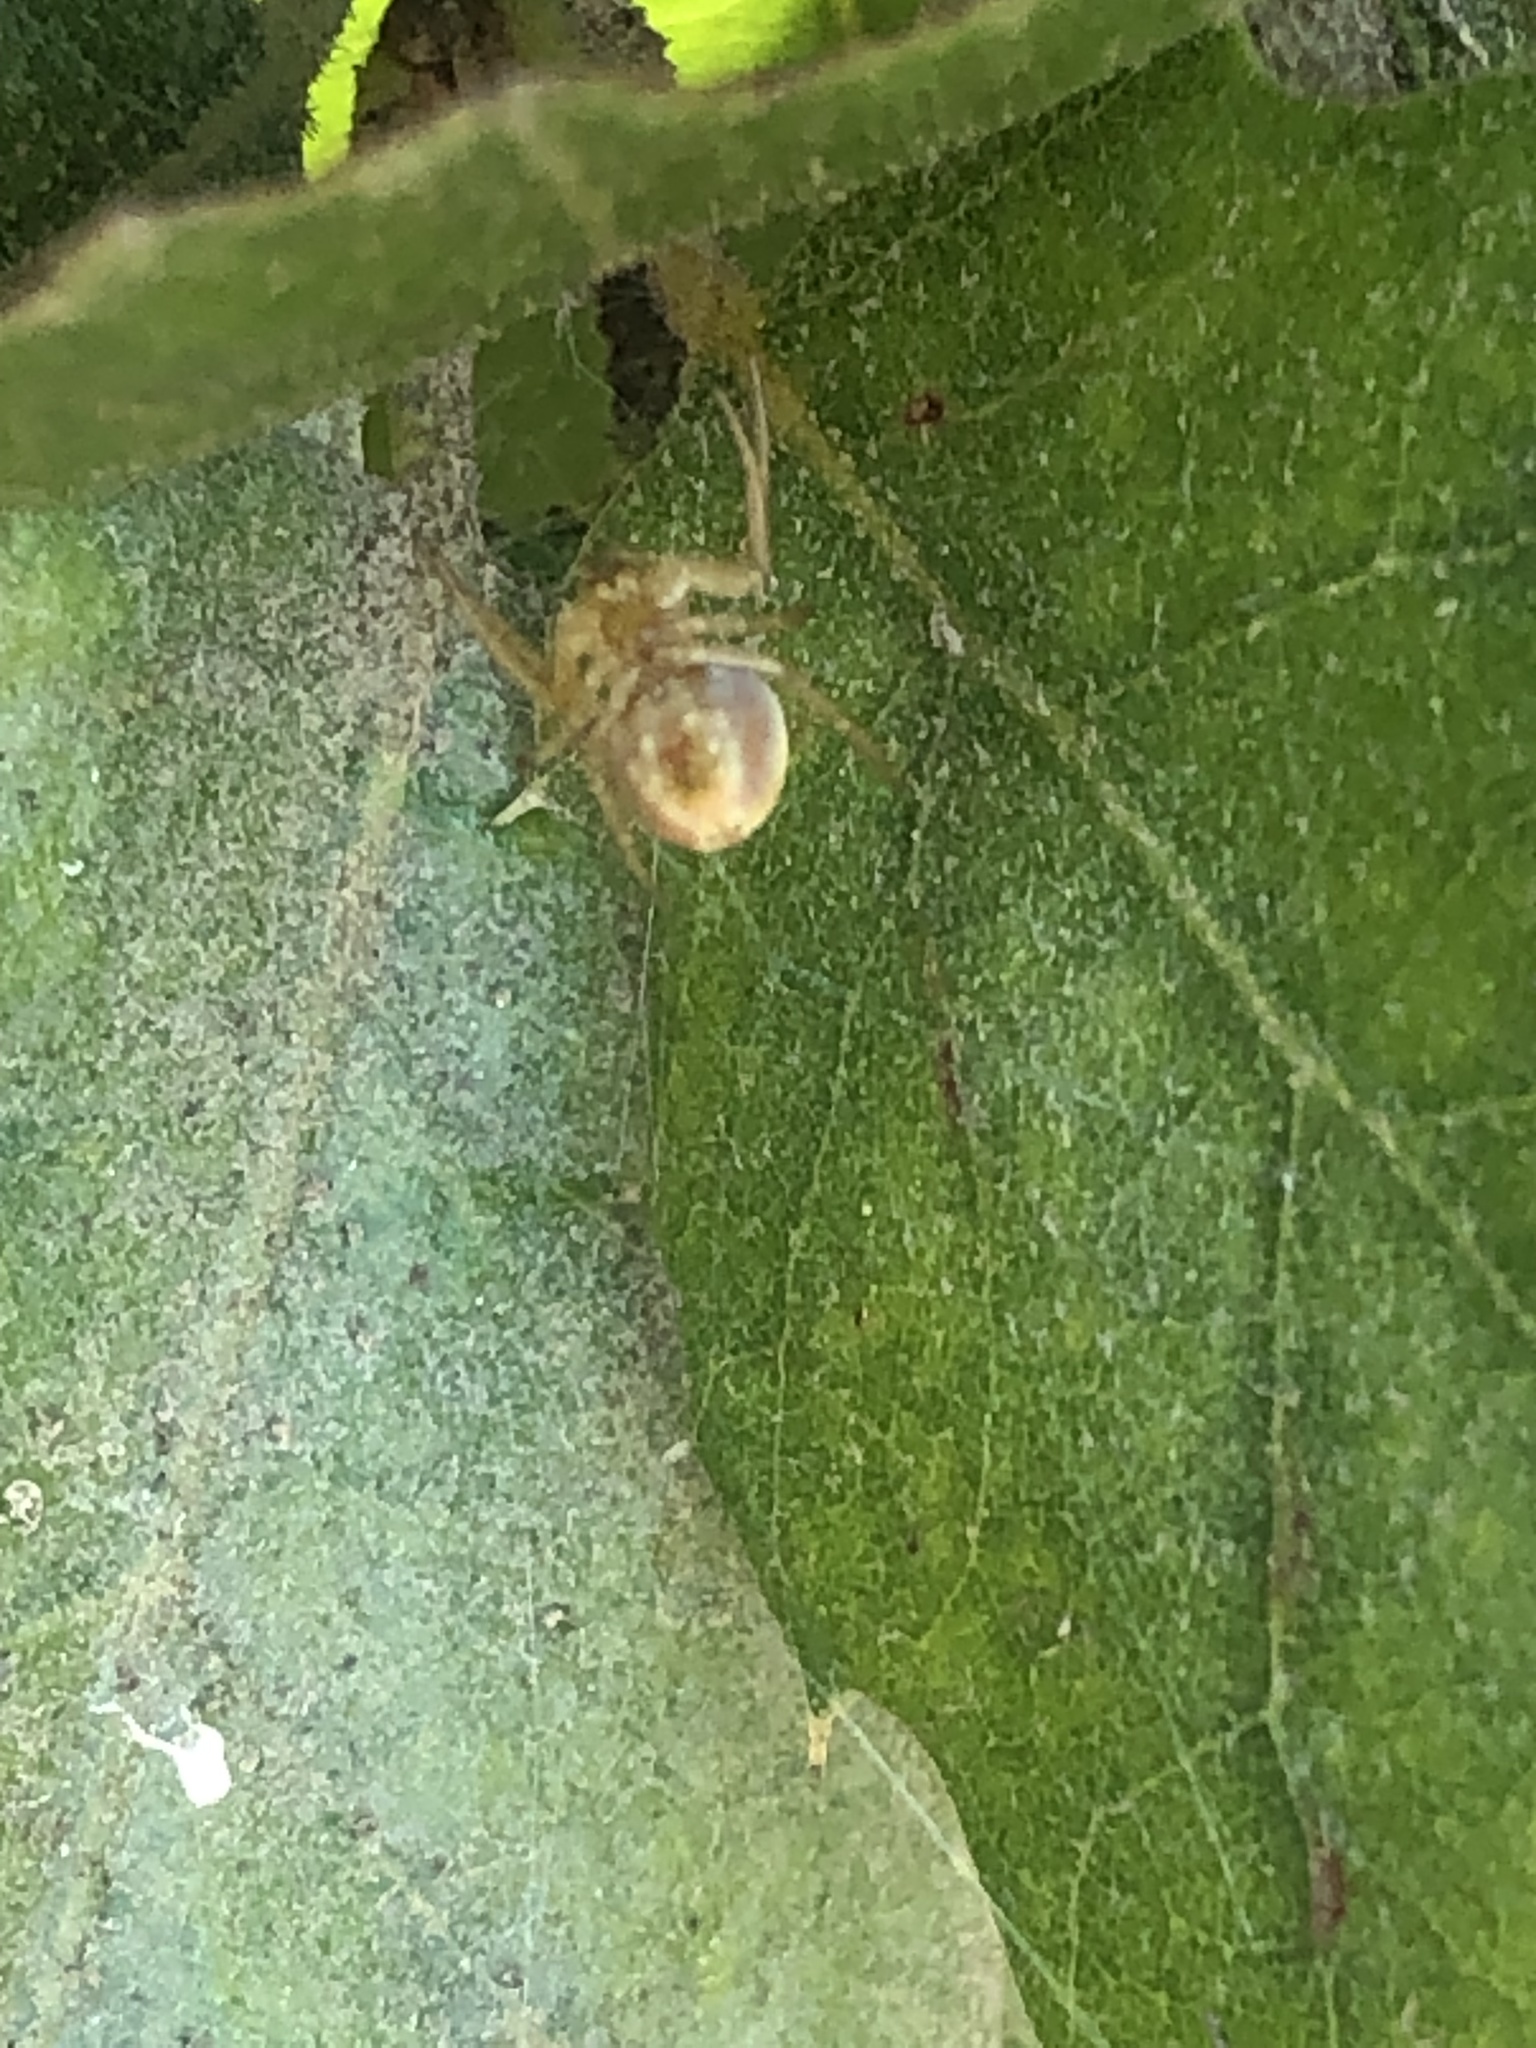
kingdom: Animalia
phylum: Arthropoda
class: Arachnida
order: Araneae
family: Araneidae
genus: Araniella
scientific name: Araniella displicata
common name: Sixspotted orb weaver
